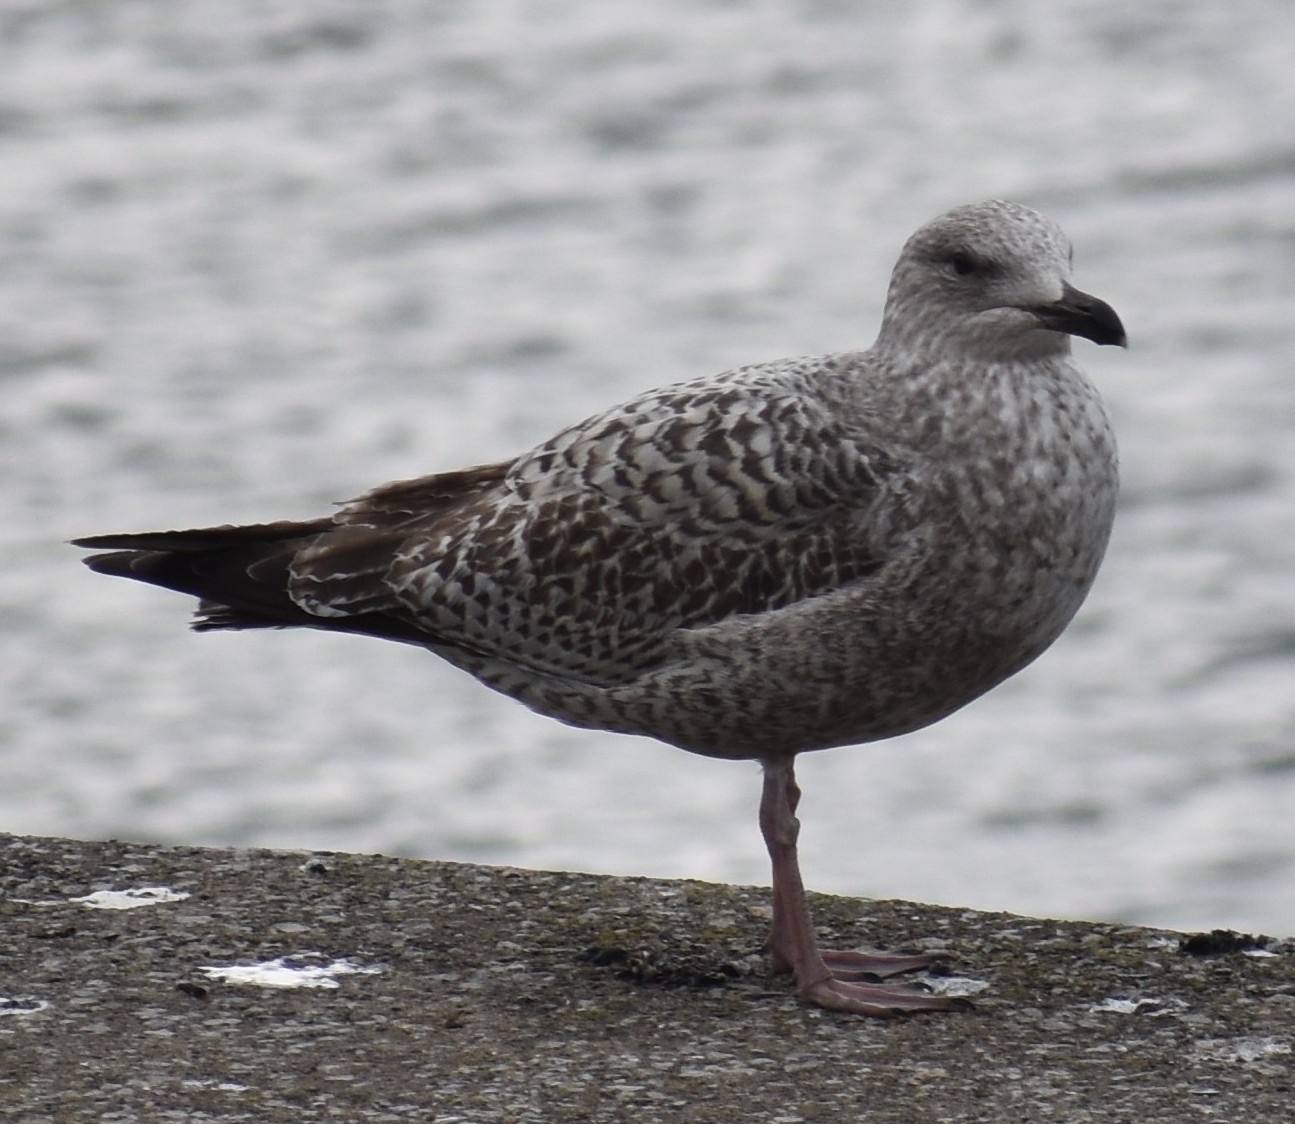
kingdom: Animalia
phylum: Chordata
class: Aves
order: Charadriiformes
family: Laridae
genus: Larus
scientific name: Larus argentatus
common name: Herring gull
